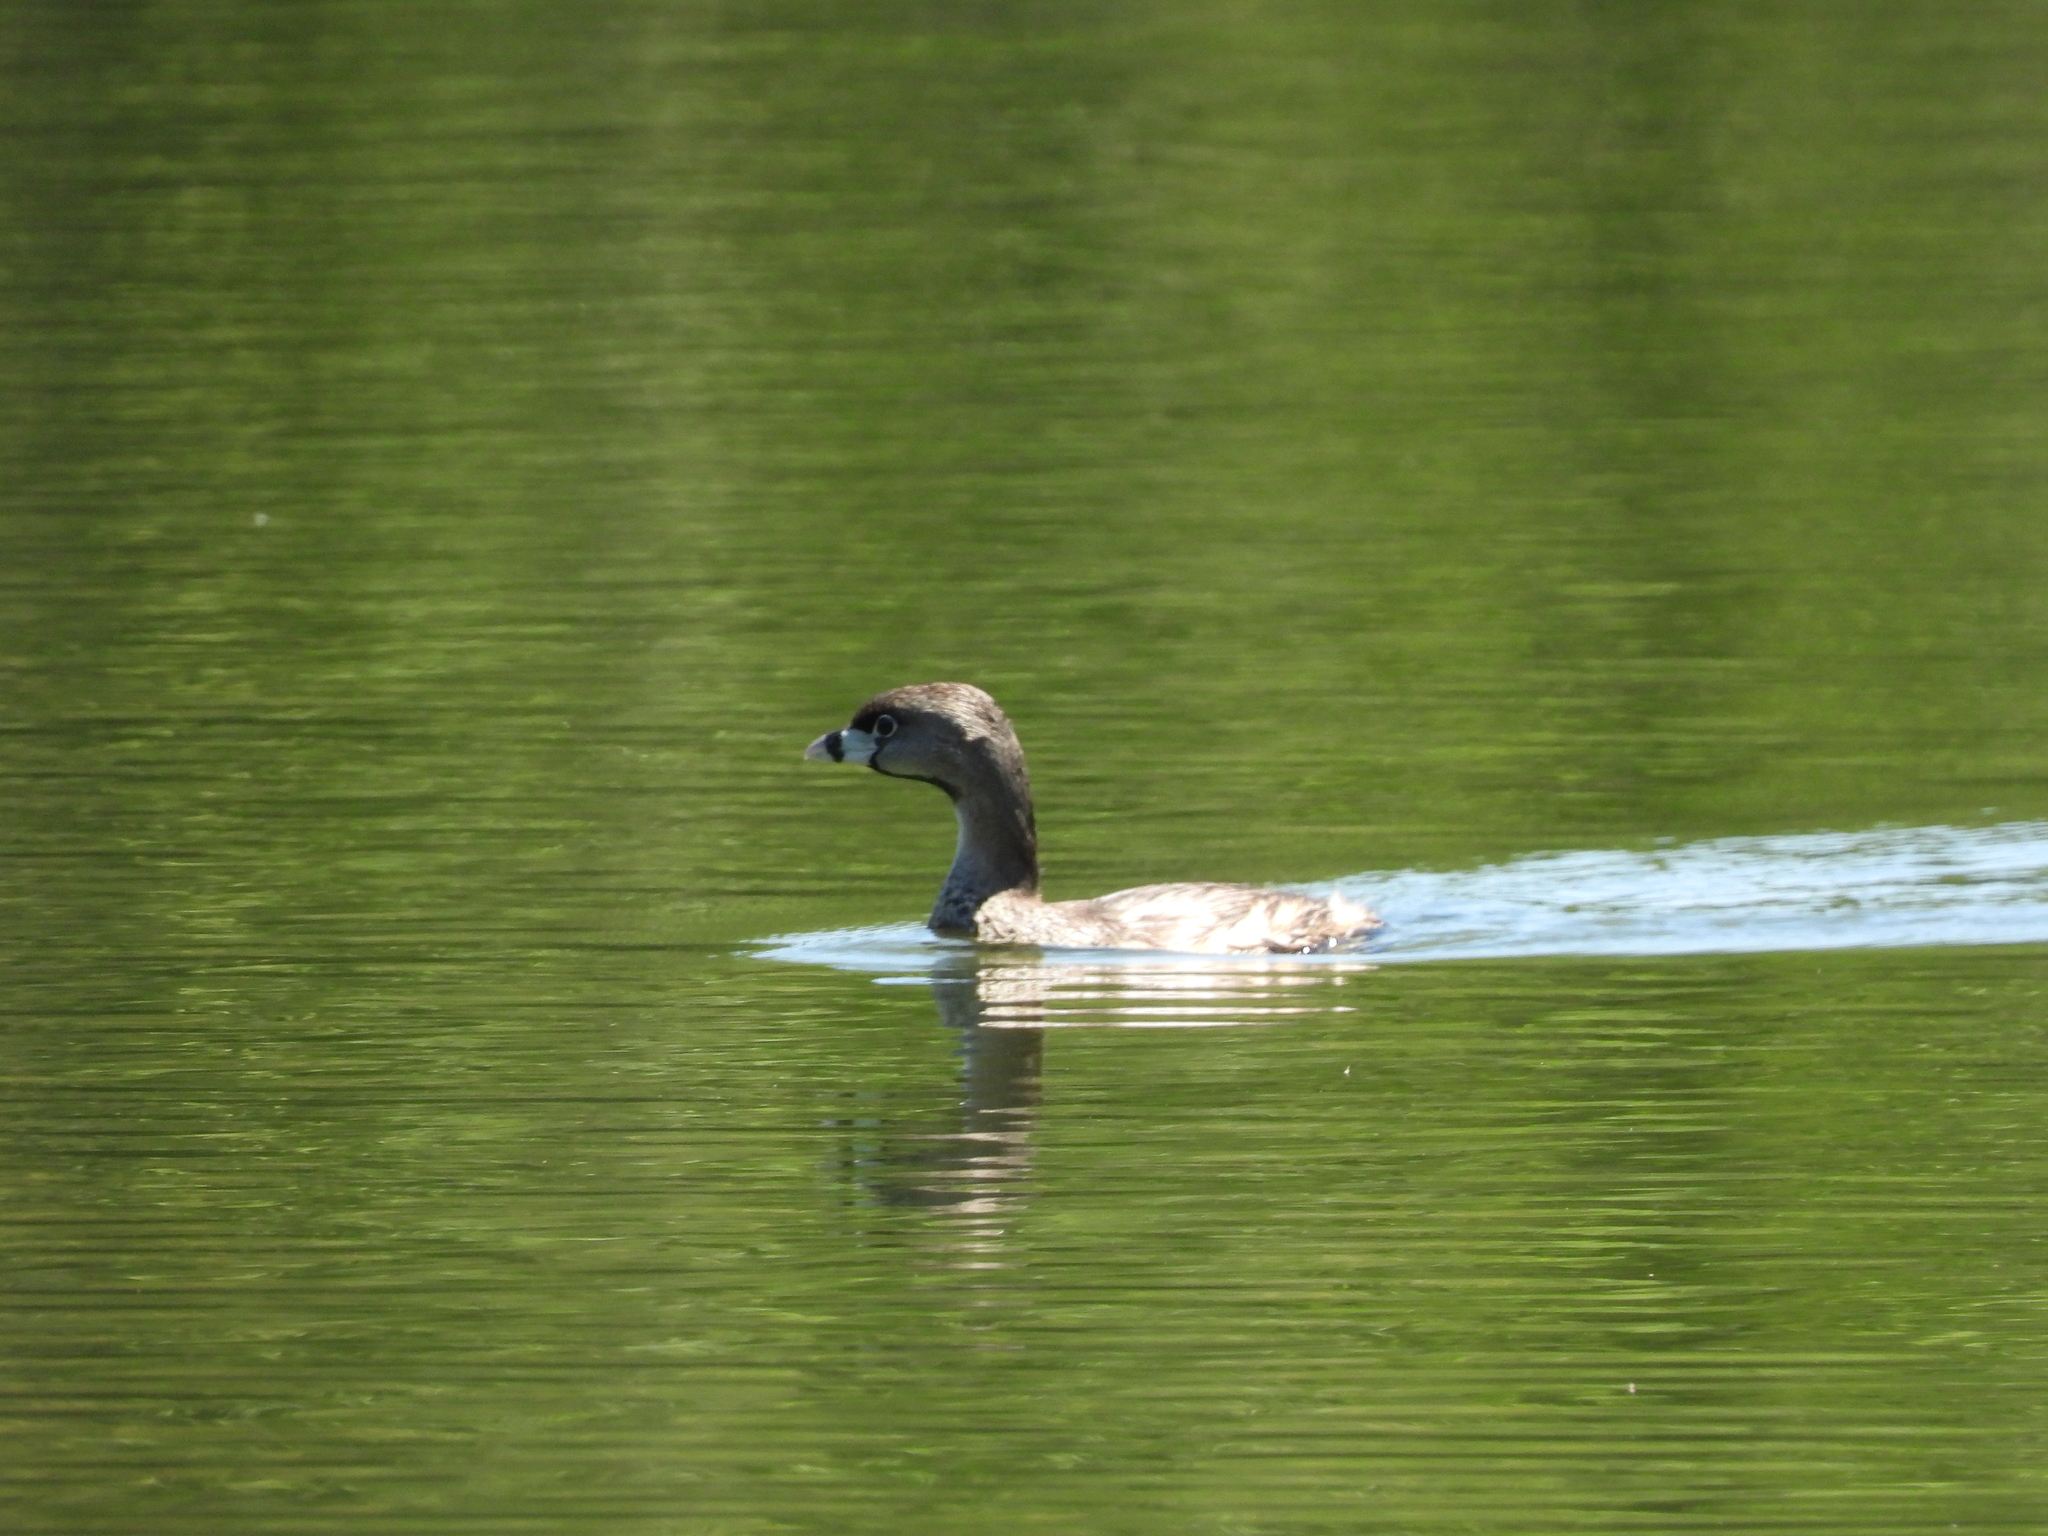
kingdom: Animalia
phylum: Chordata
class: Aves
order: Podicipediformes
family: Podicipedidae
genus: Podilymbus
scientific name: Podilymbus podiceps
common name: Pied-billed grebe
